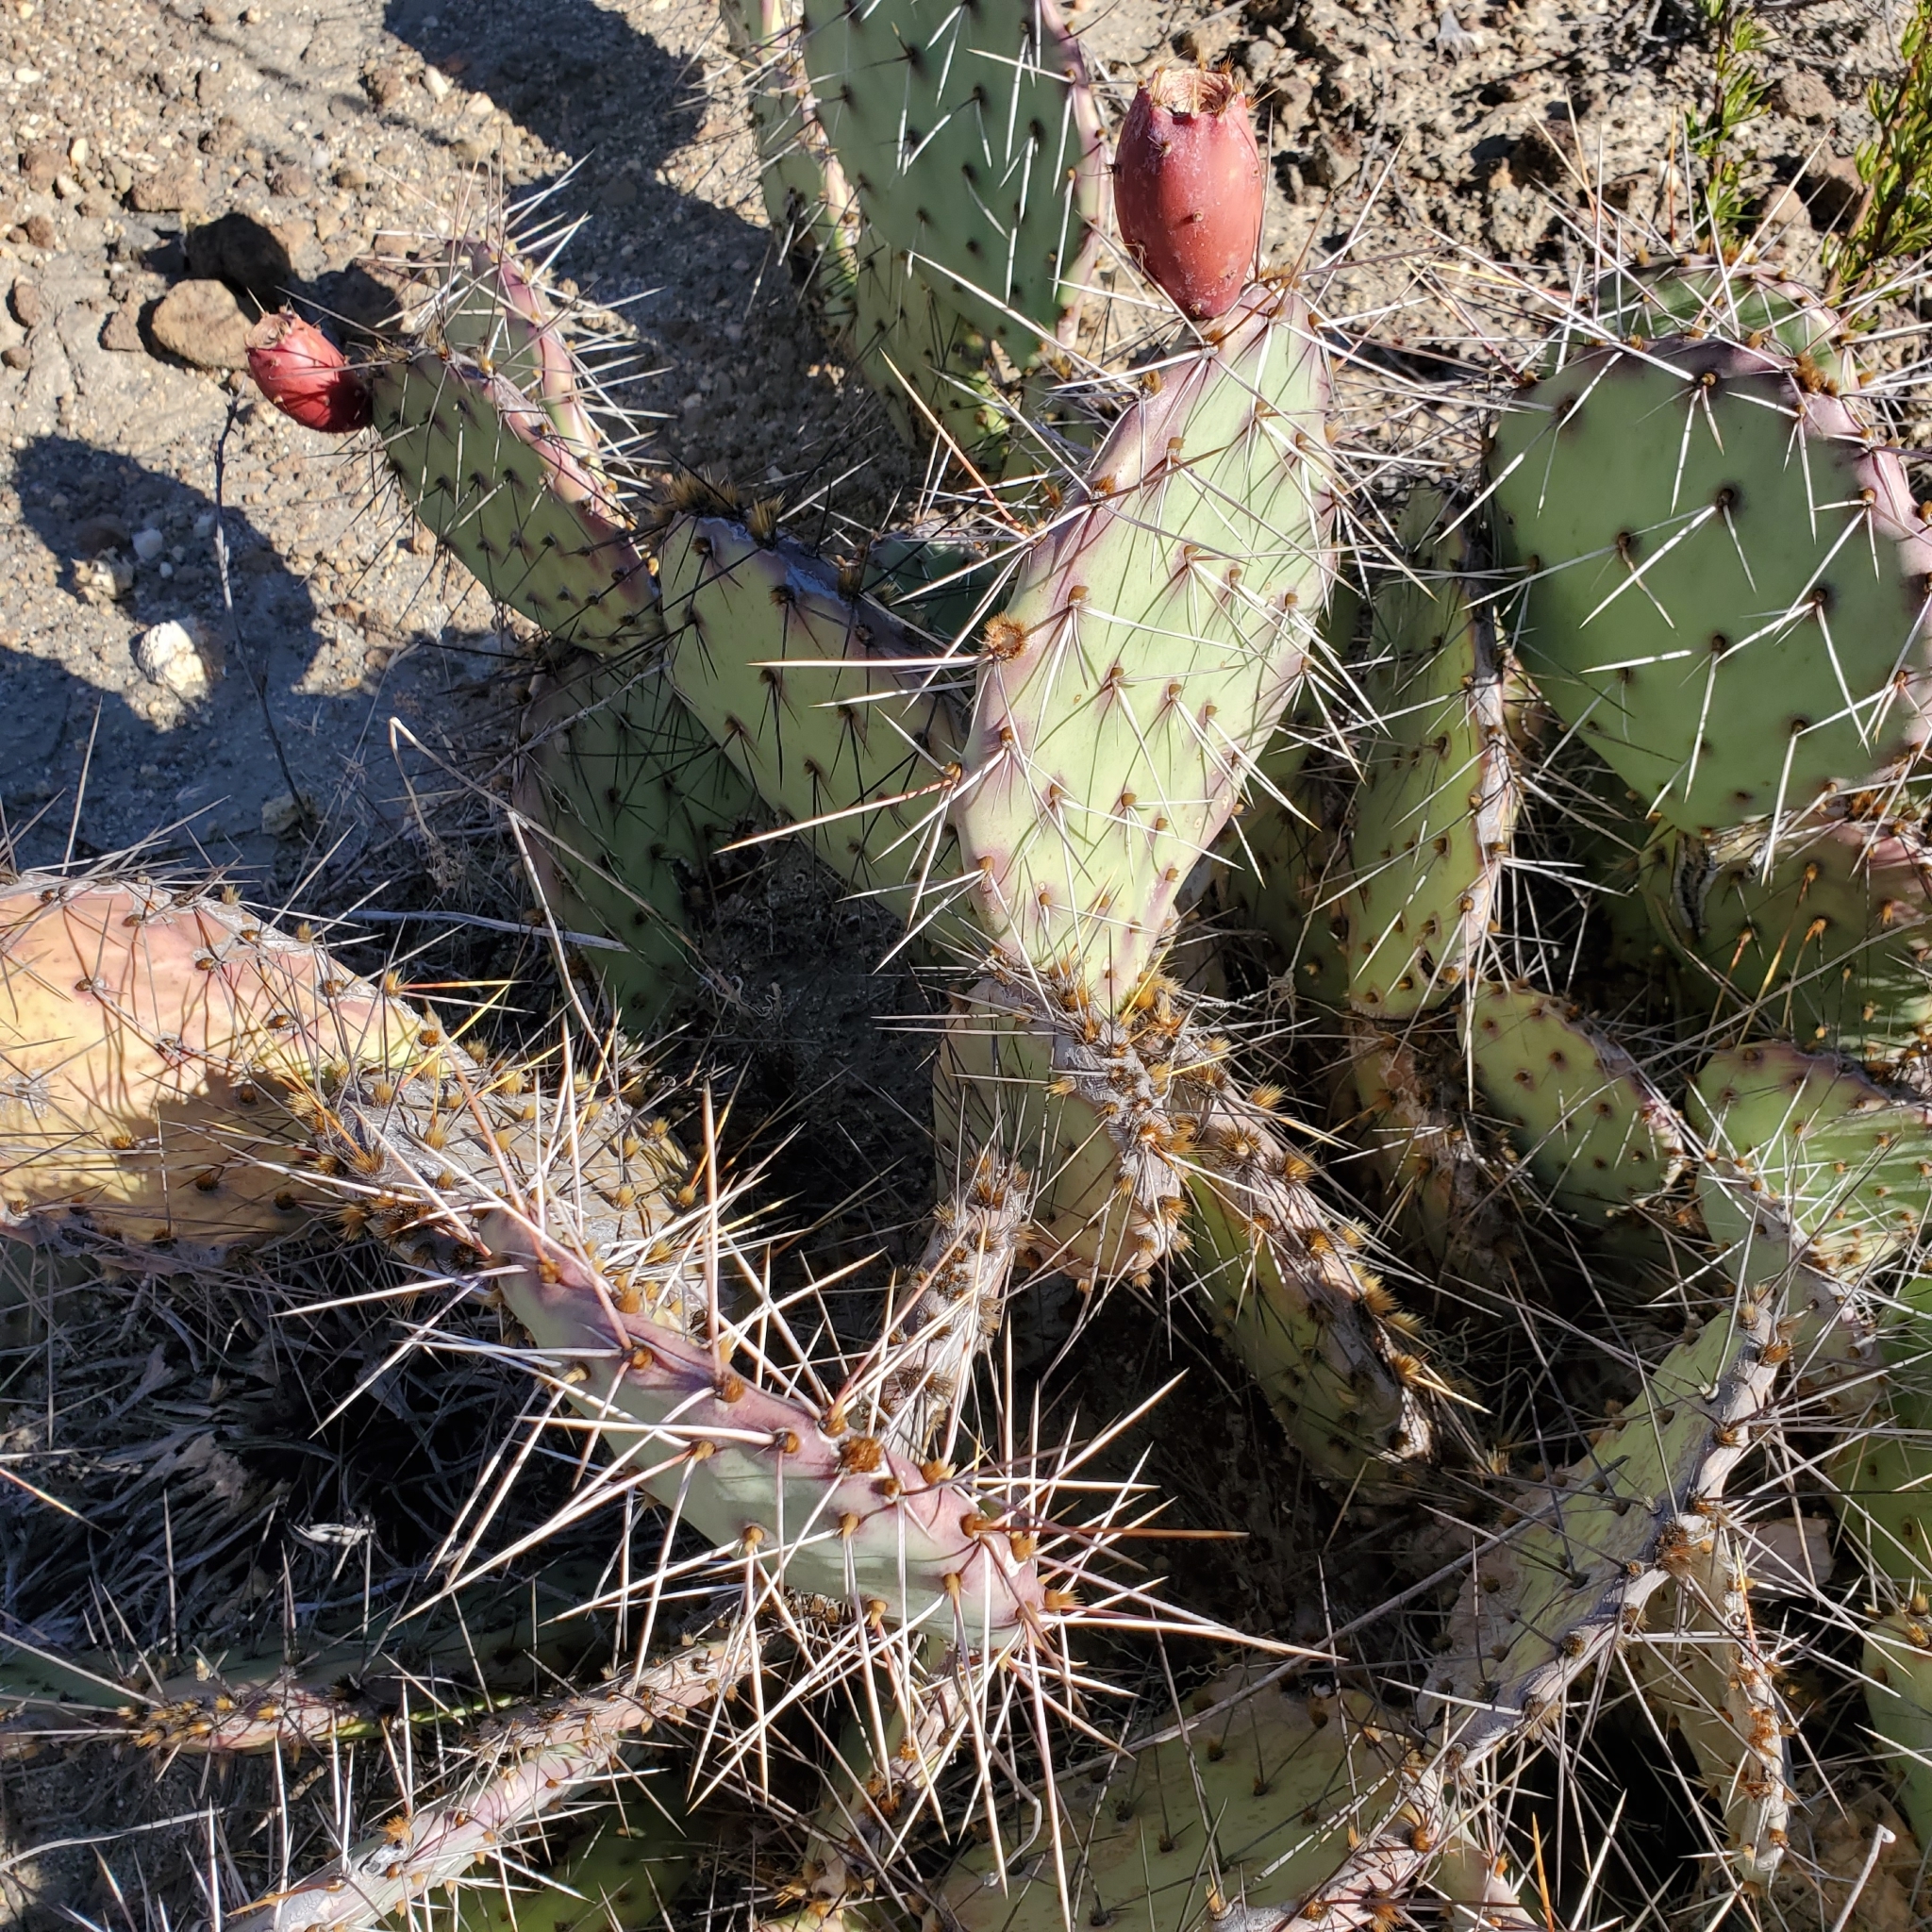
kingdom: Plantae
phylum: Tracheophyta
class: Magnoliopsida
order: Caryophyllales
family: Cactaceae
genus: Opuntia
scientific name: Opuntia phaeacantha
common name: New mexico prickly-pear
